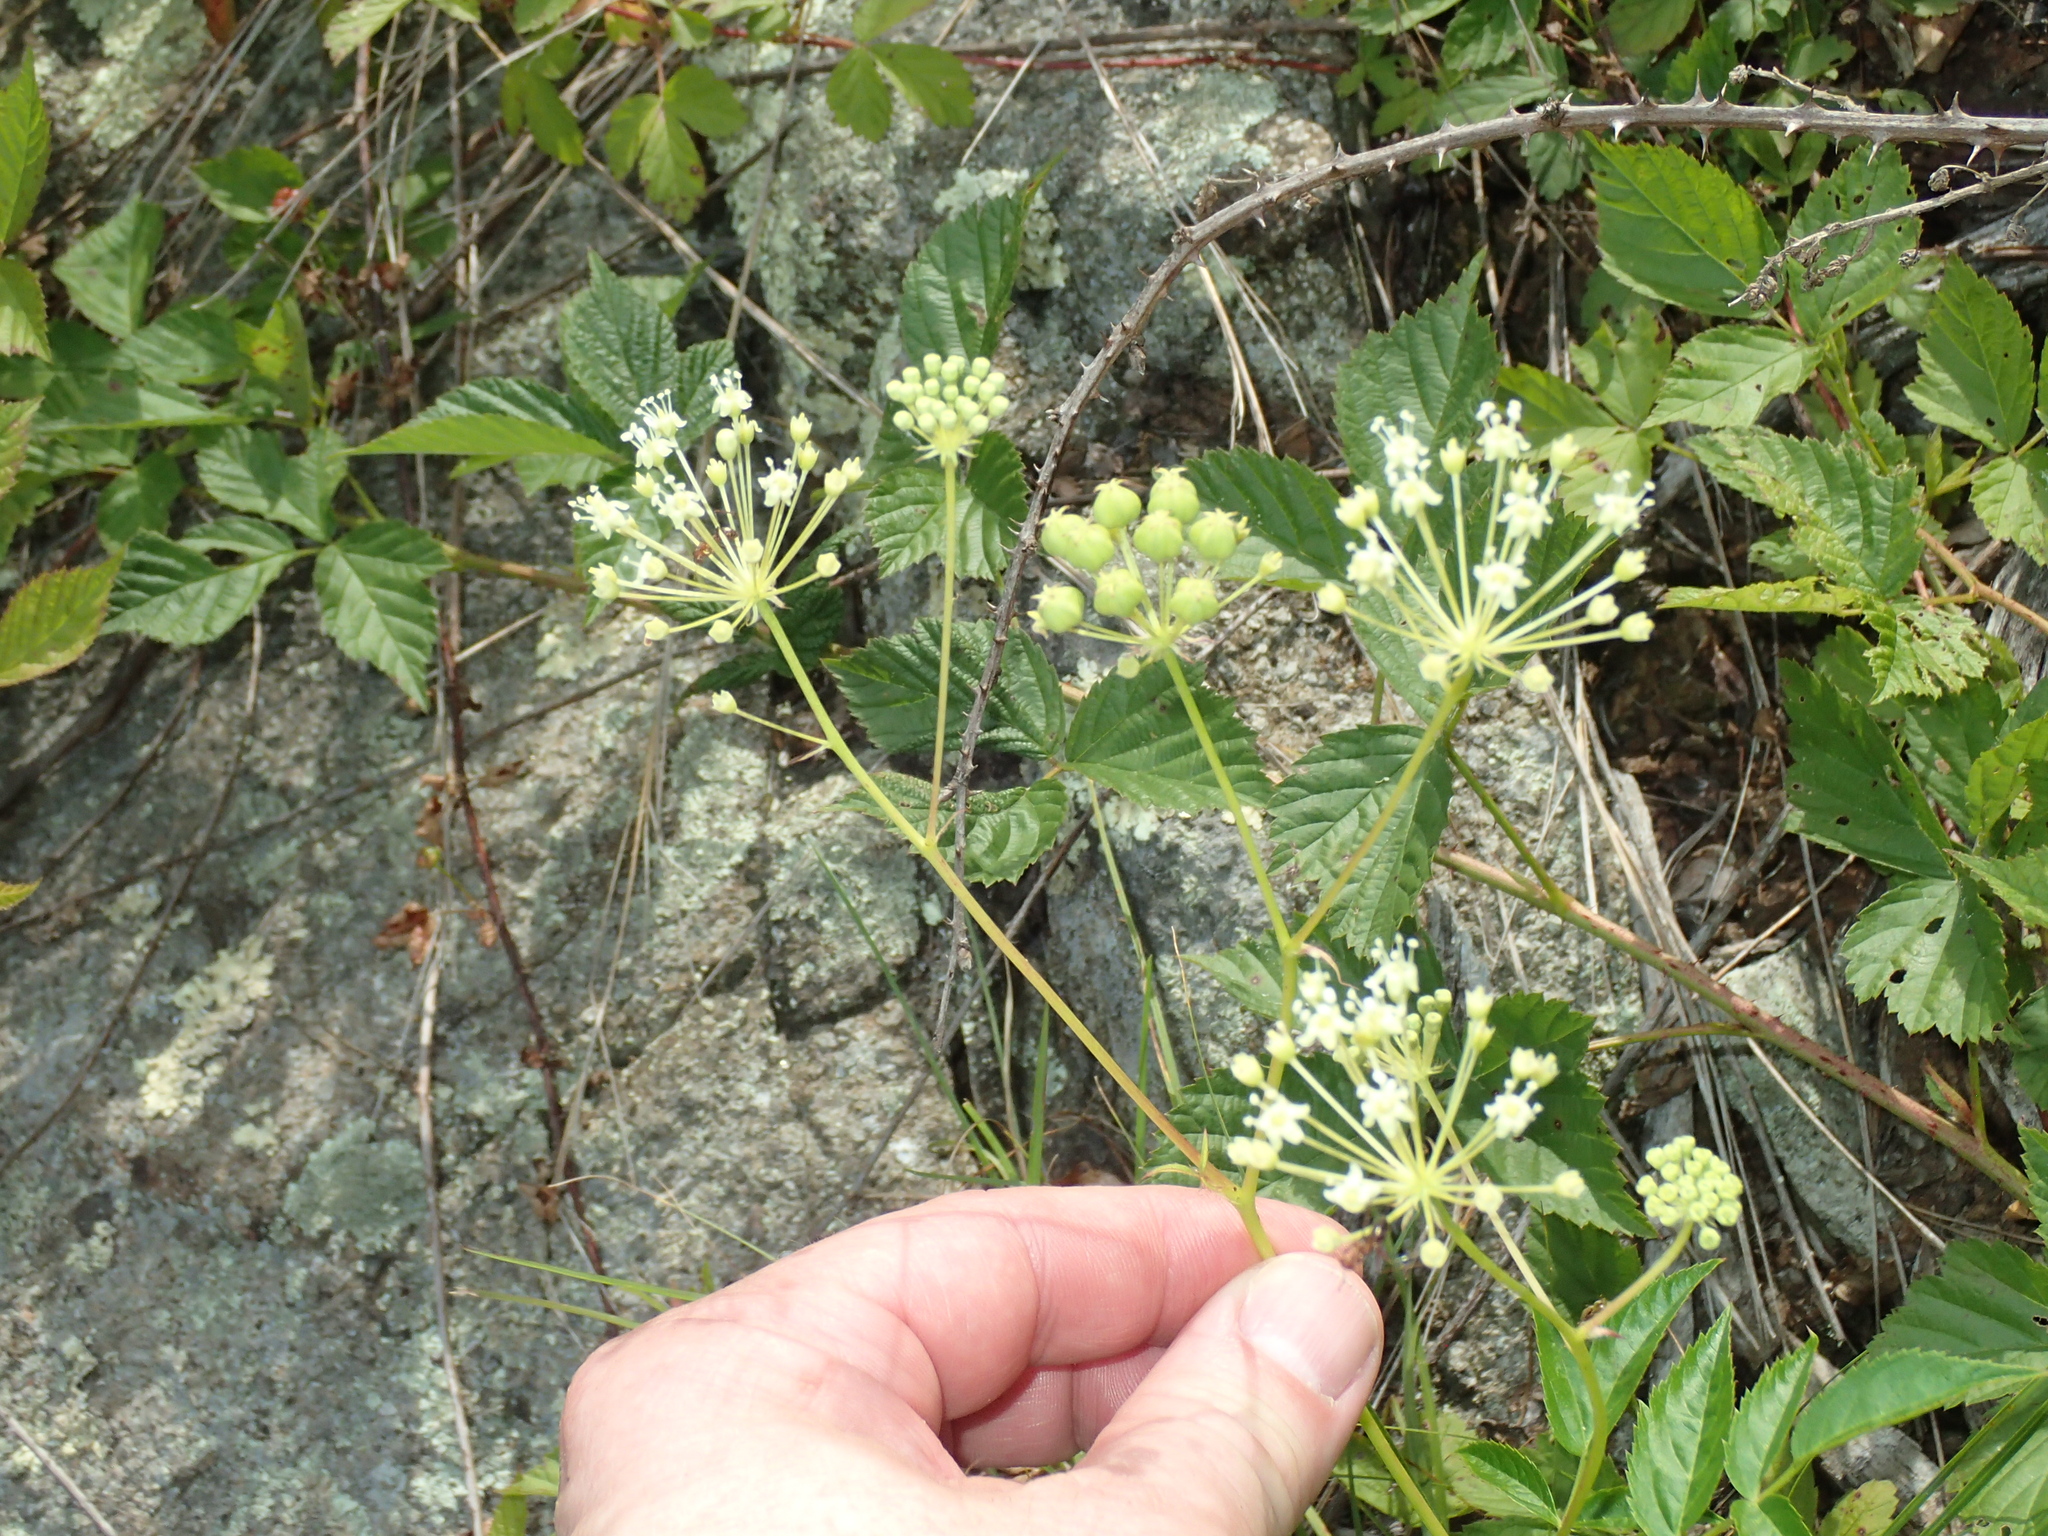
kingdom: Plantae
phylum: Tracheophyta
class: Magnoliopsida
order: Apiales
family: Araliaceae
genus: Aralia
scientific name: Aralia hispida
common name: Bristly sarsaparilla
